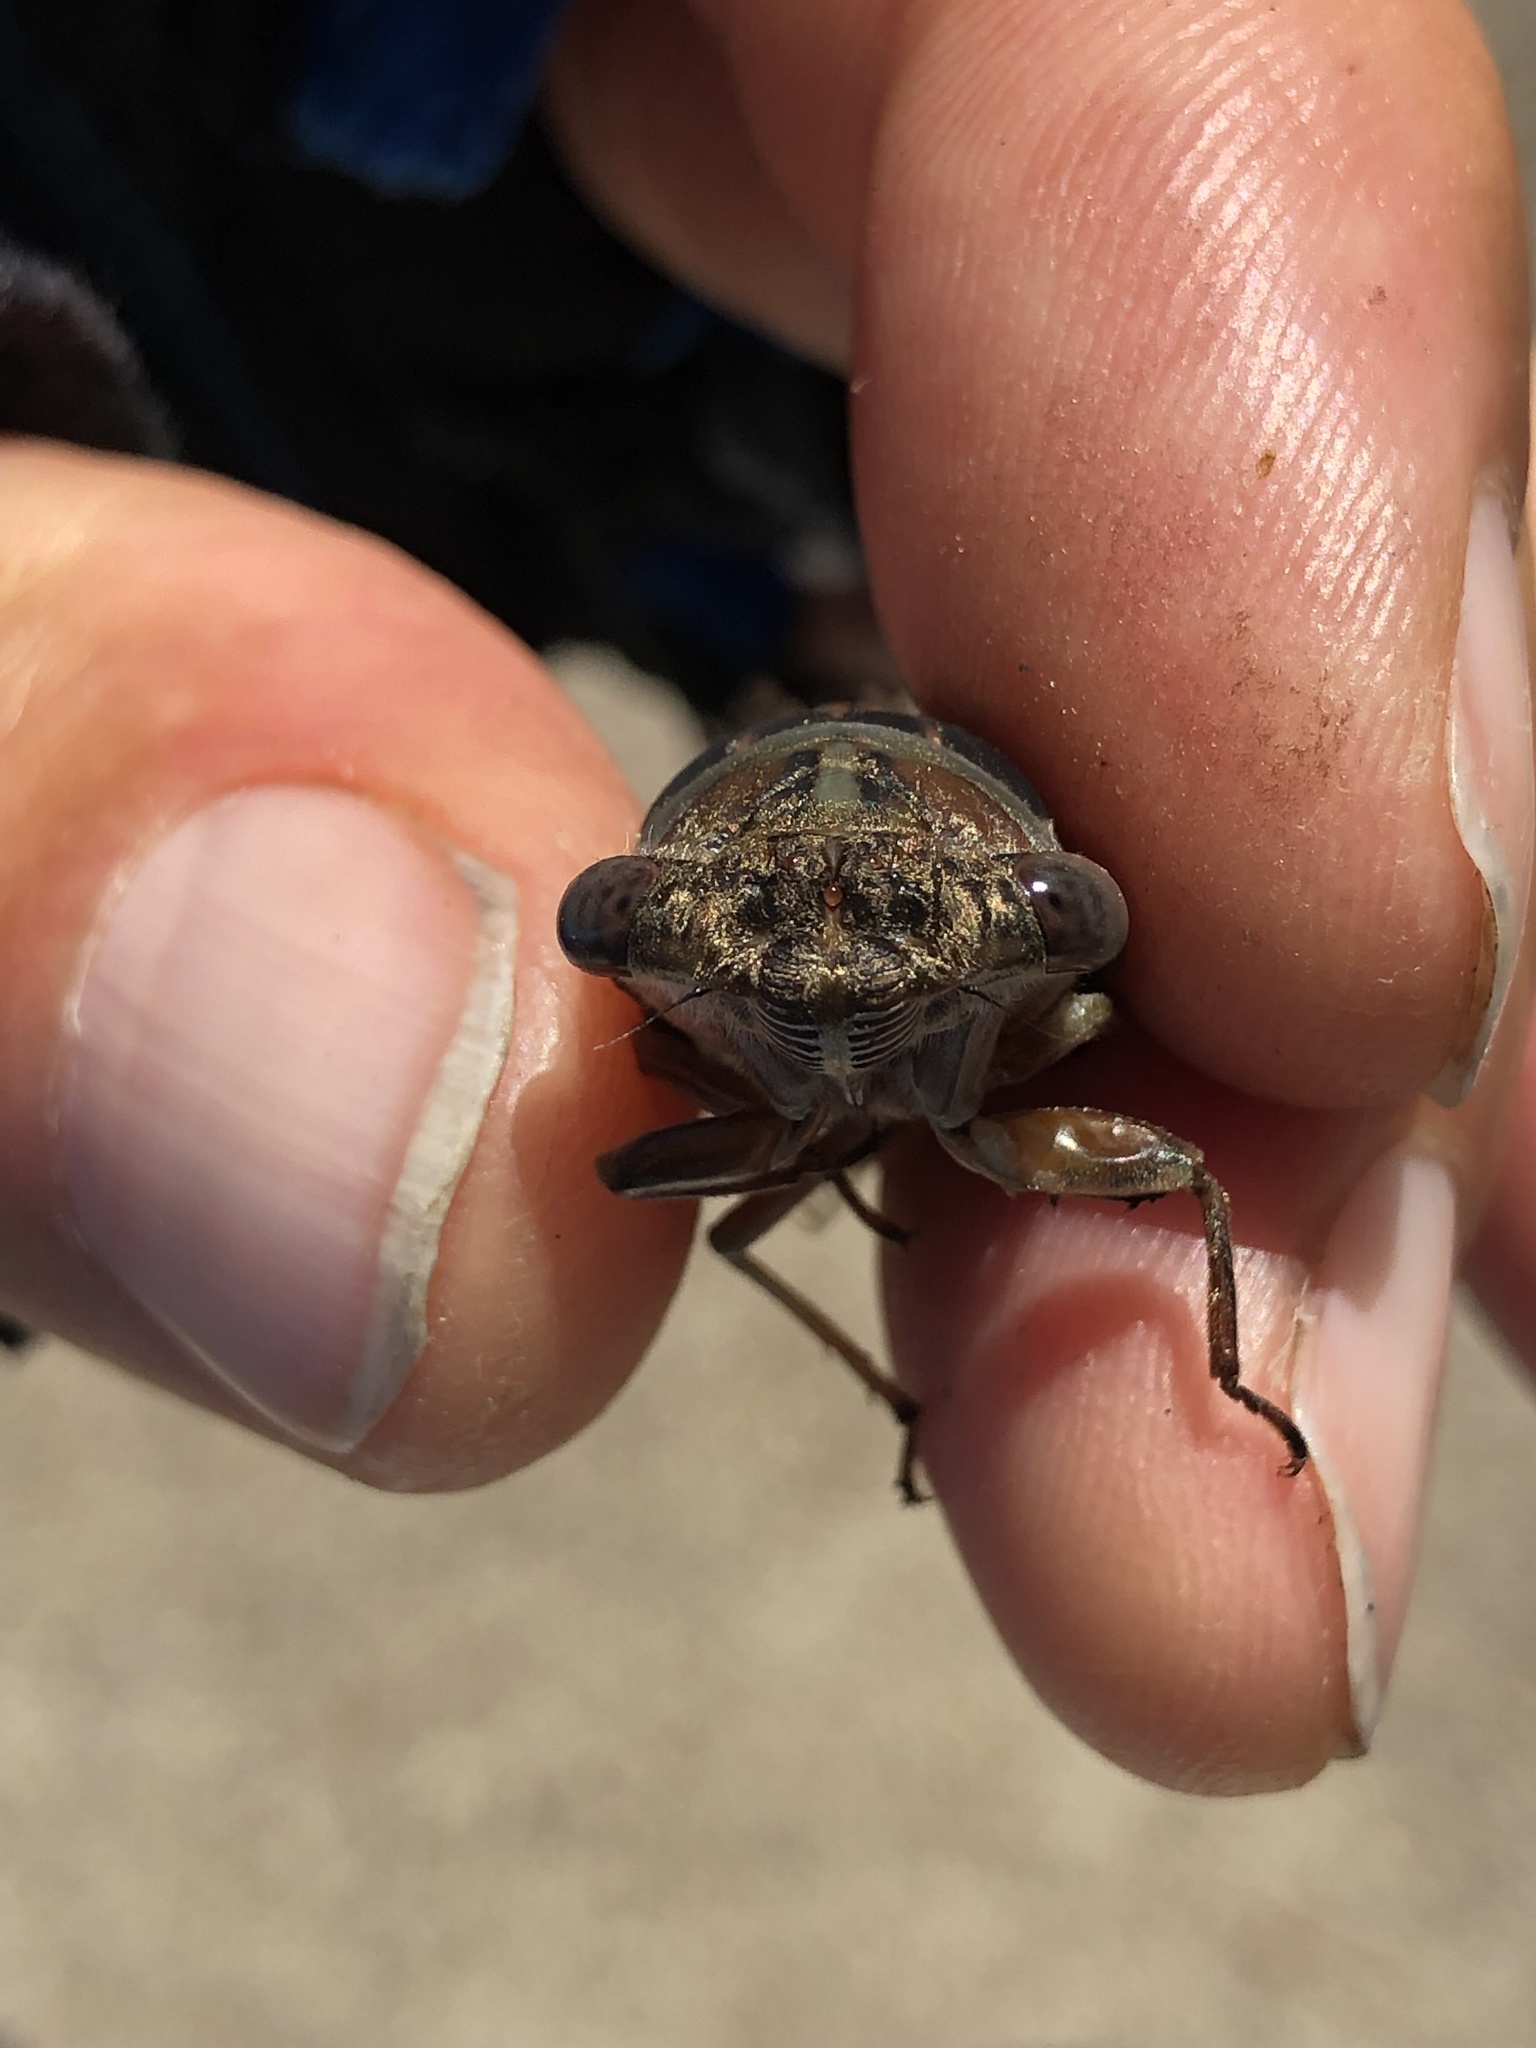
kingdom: Animalia
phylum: Arthropoda
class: Insecta
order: Hemiptera
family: Cicadidae
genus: Neotibicen
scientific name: Neotibicen davisi
